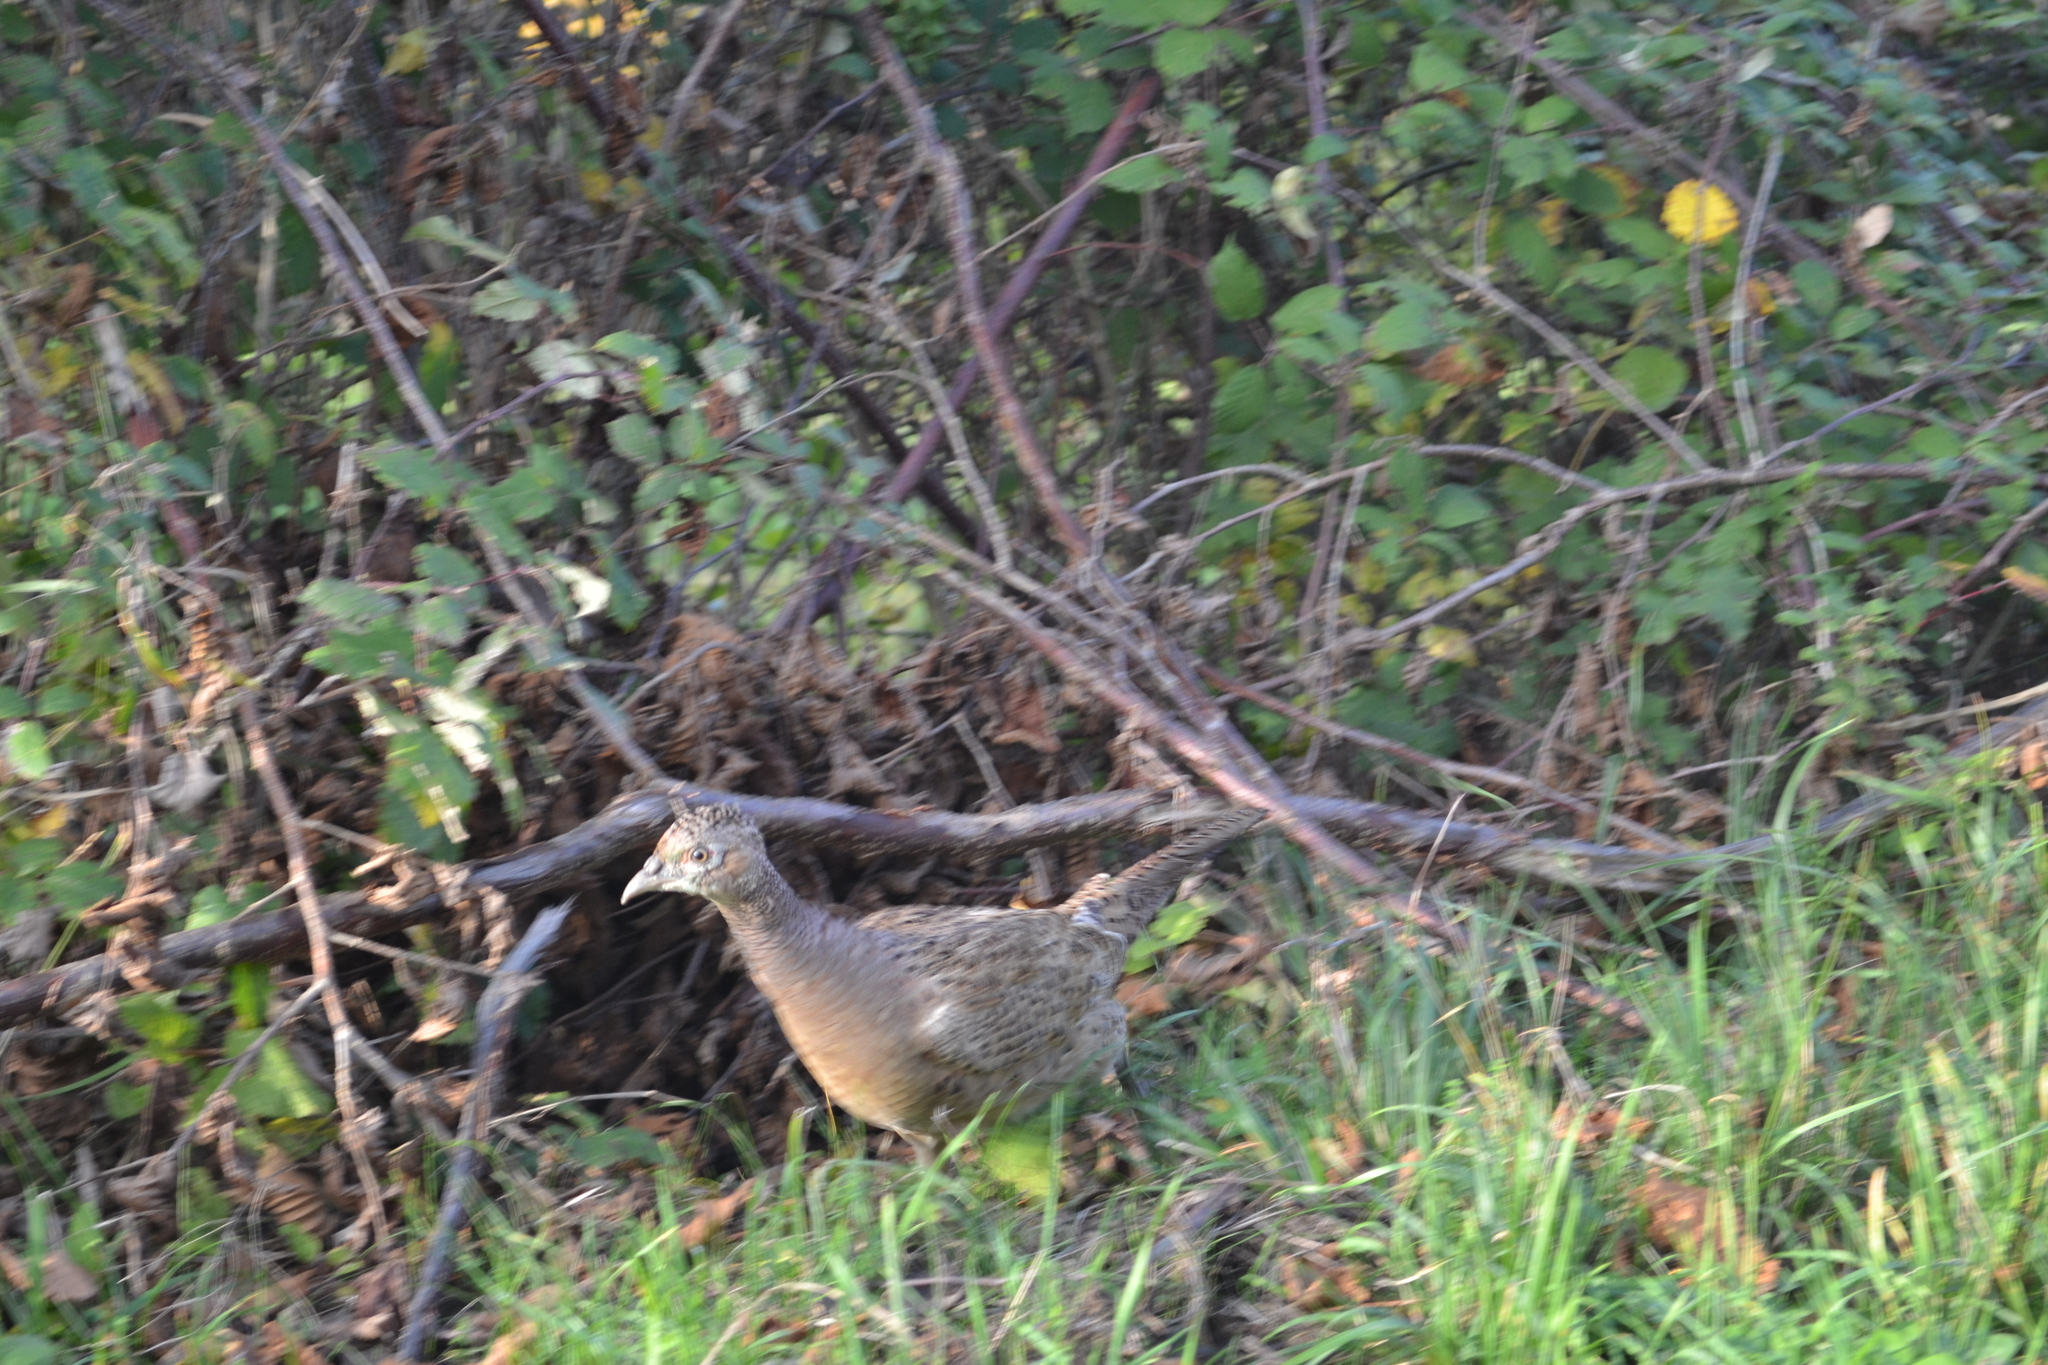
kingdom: Animalia
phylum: Chordata
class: Aves
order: Galliformes
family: Phasianidae
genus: Phasianus
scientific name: Phasianus colchicus
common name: Common pheasant
